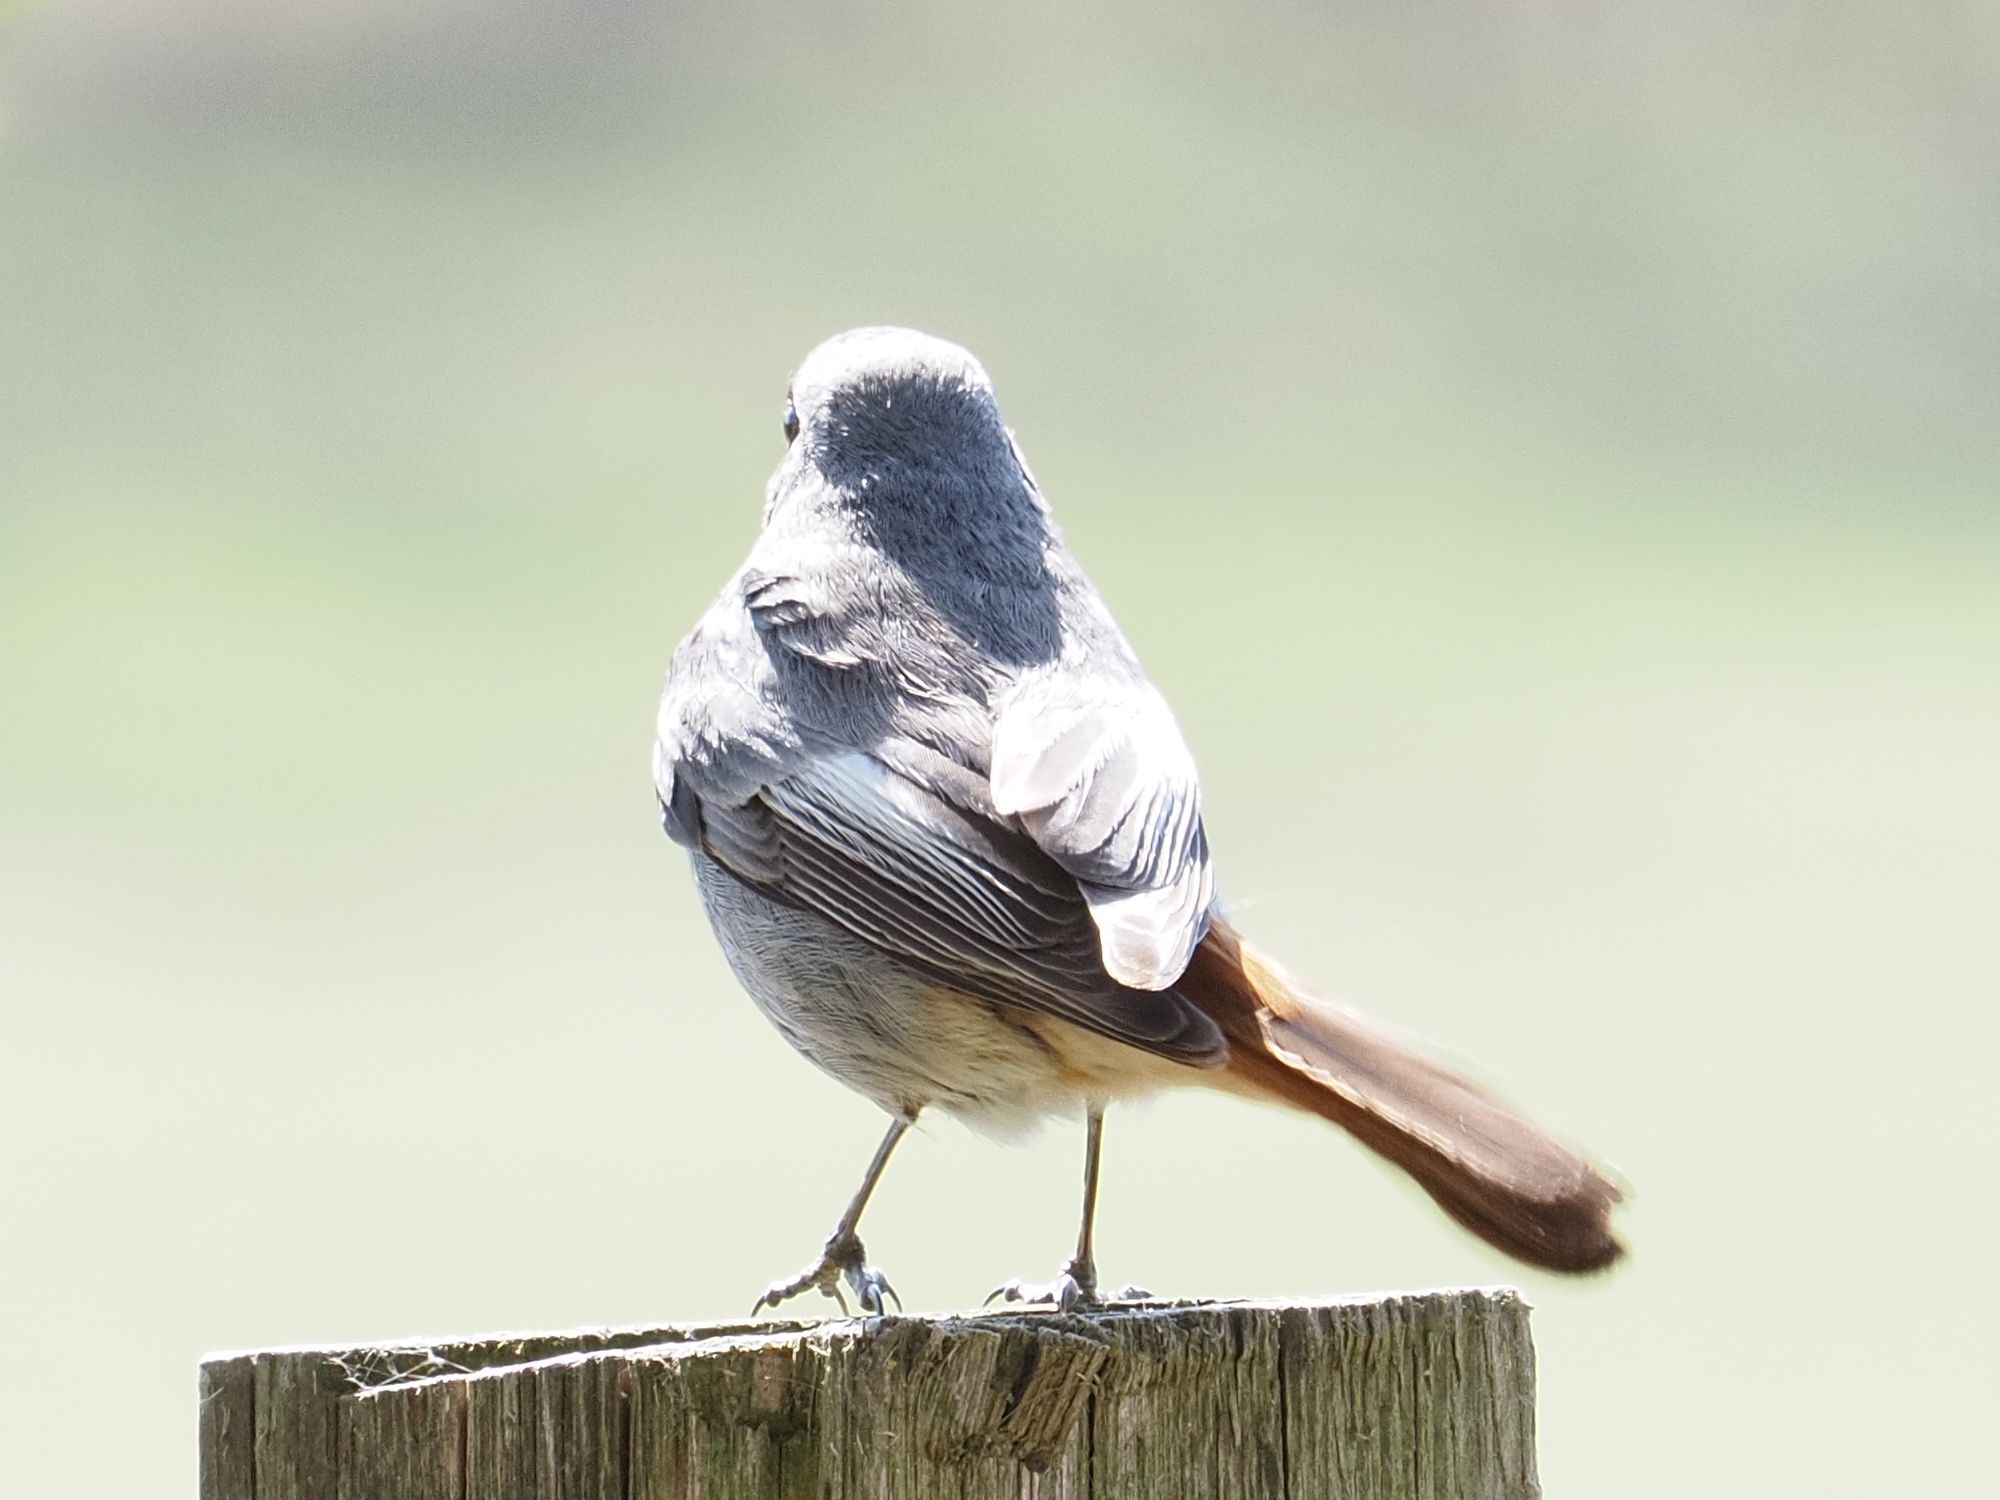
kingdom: Animalia
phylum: Chordata
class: Aves
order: Passeriformes
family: Muscicapidae
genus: Phoenicurus
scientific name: Phoenicurus ochruros
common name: Black redstart
